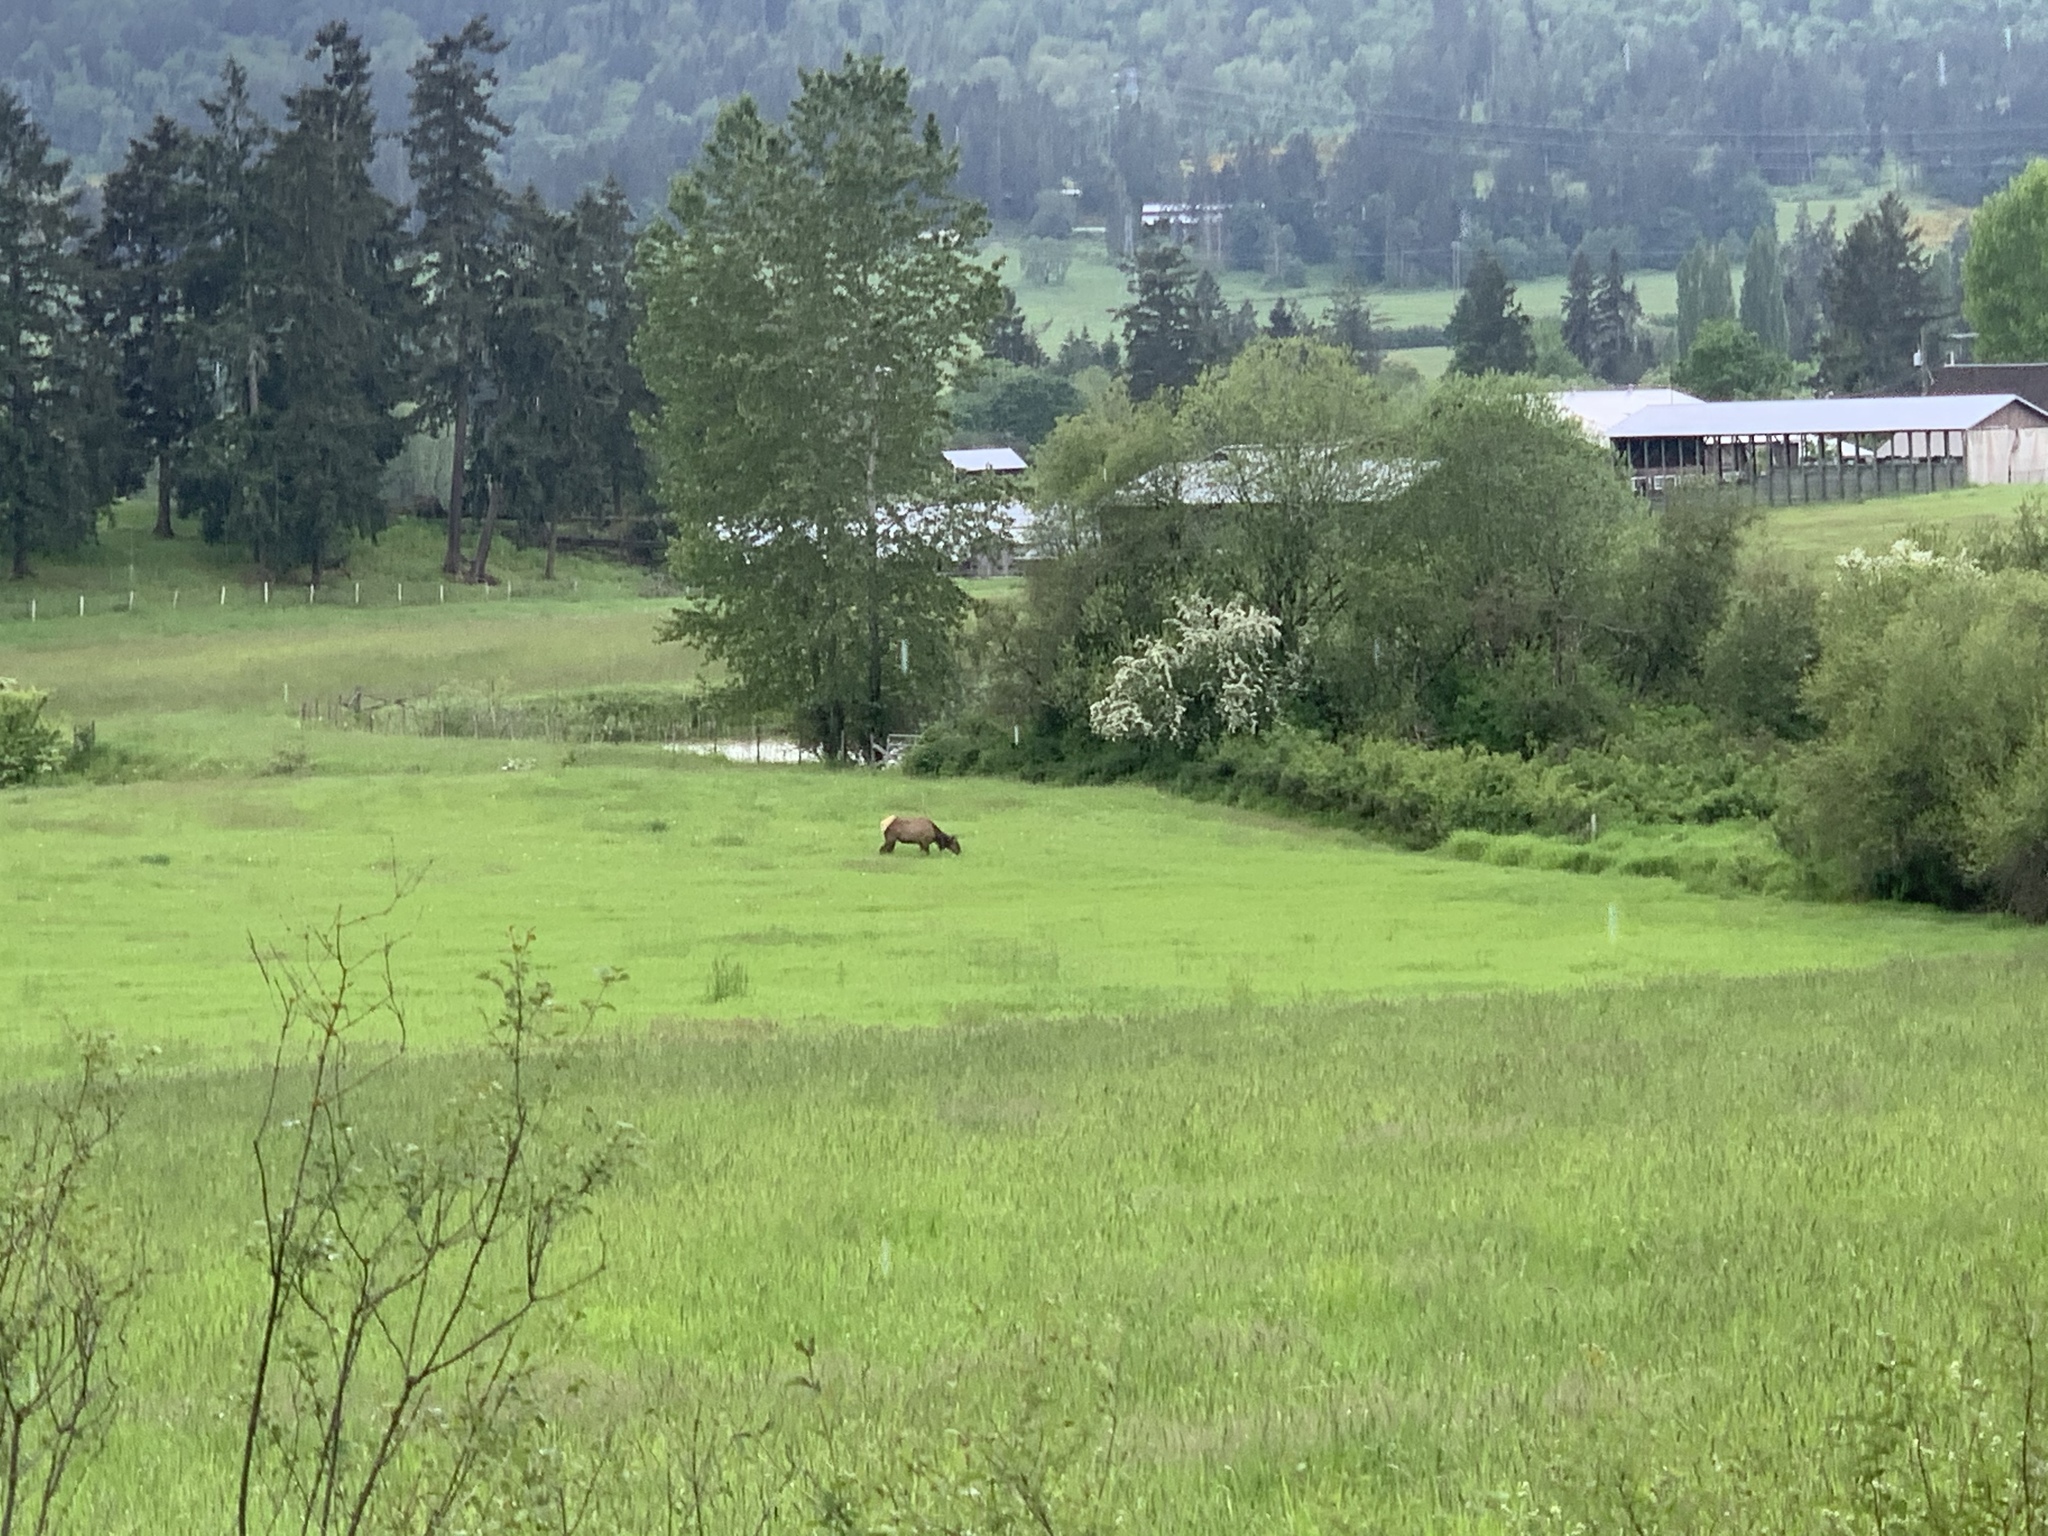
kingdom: Animalia
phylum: Chordata
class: Mammalia
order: Artiodactyla
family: Cervidae
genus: Cervus
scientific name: Cervus elaphus
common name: Red deer
